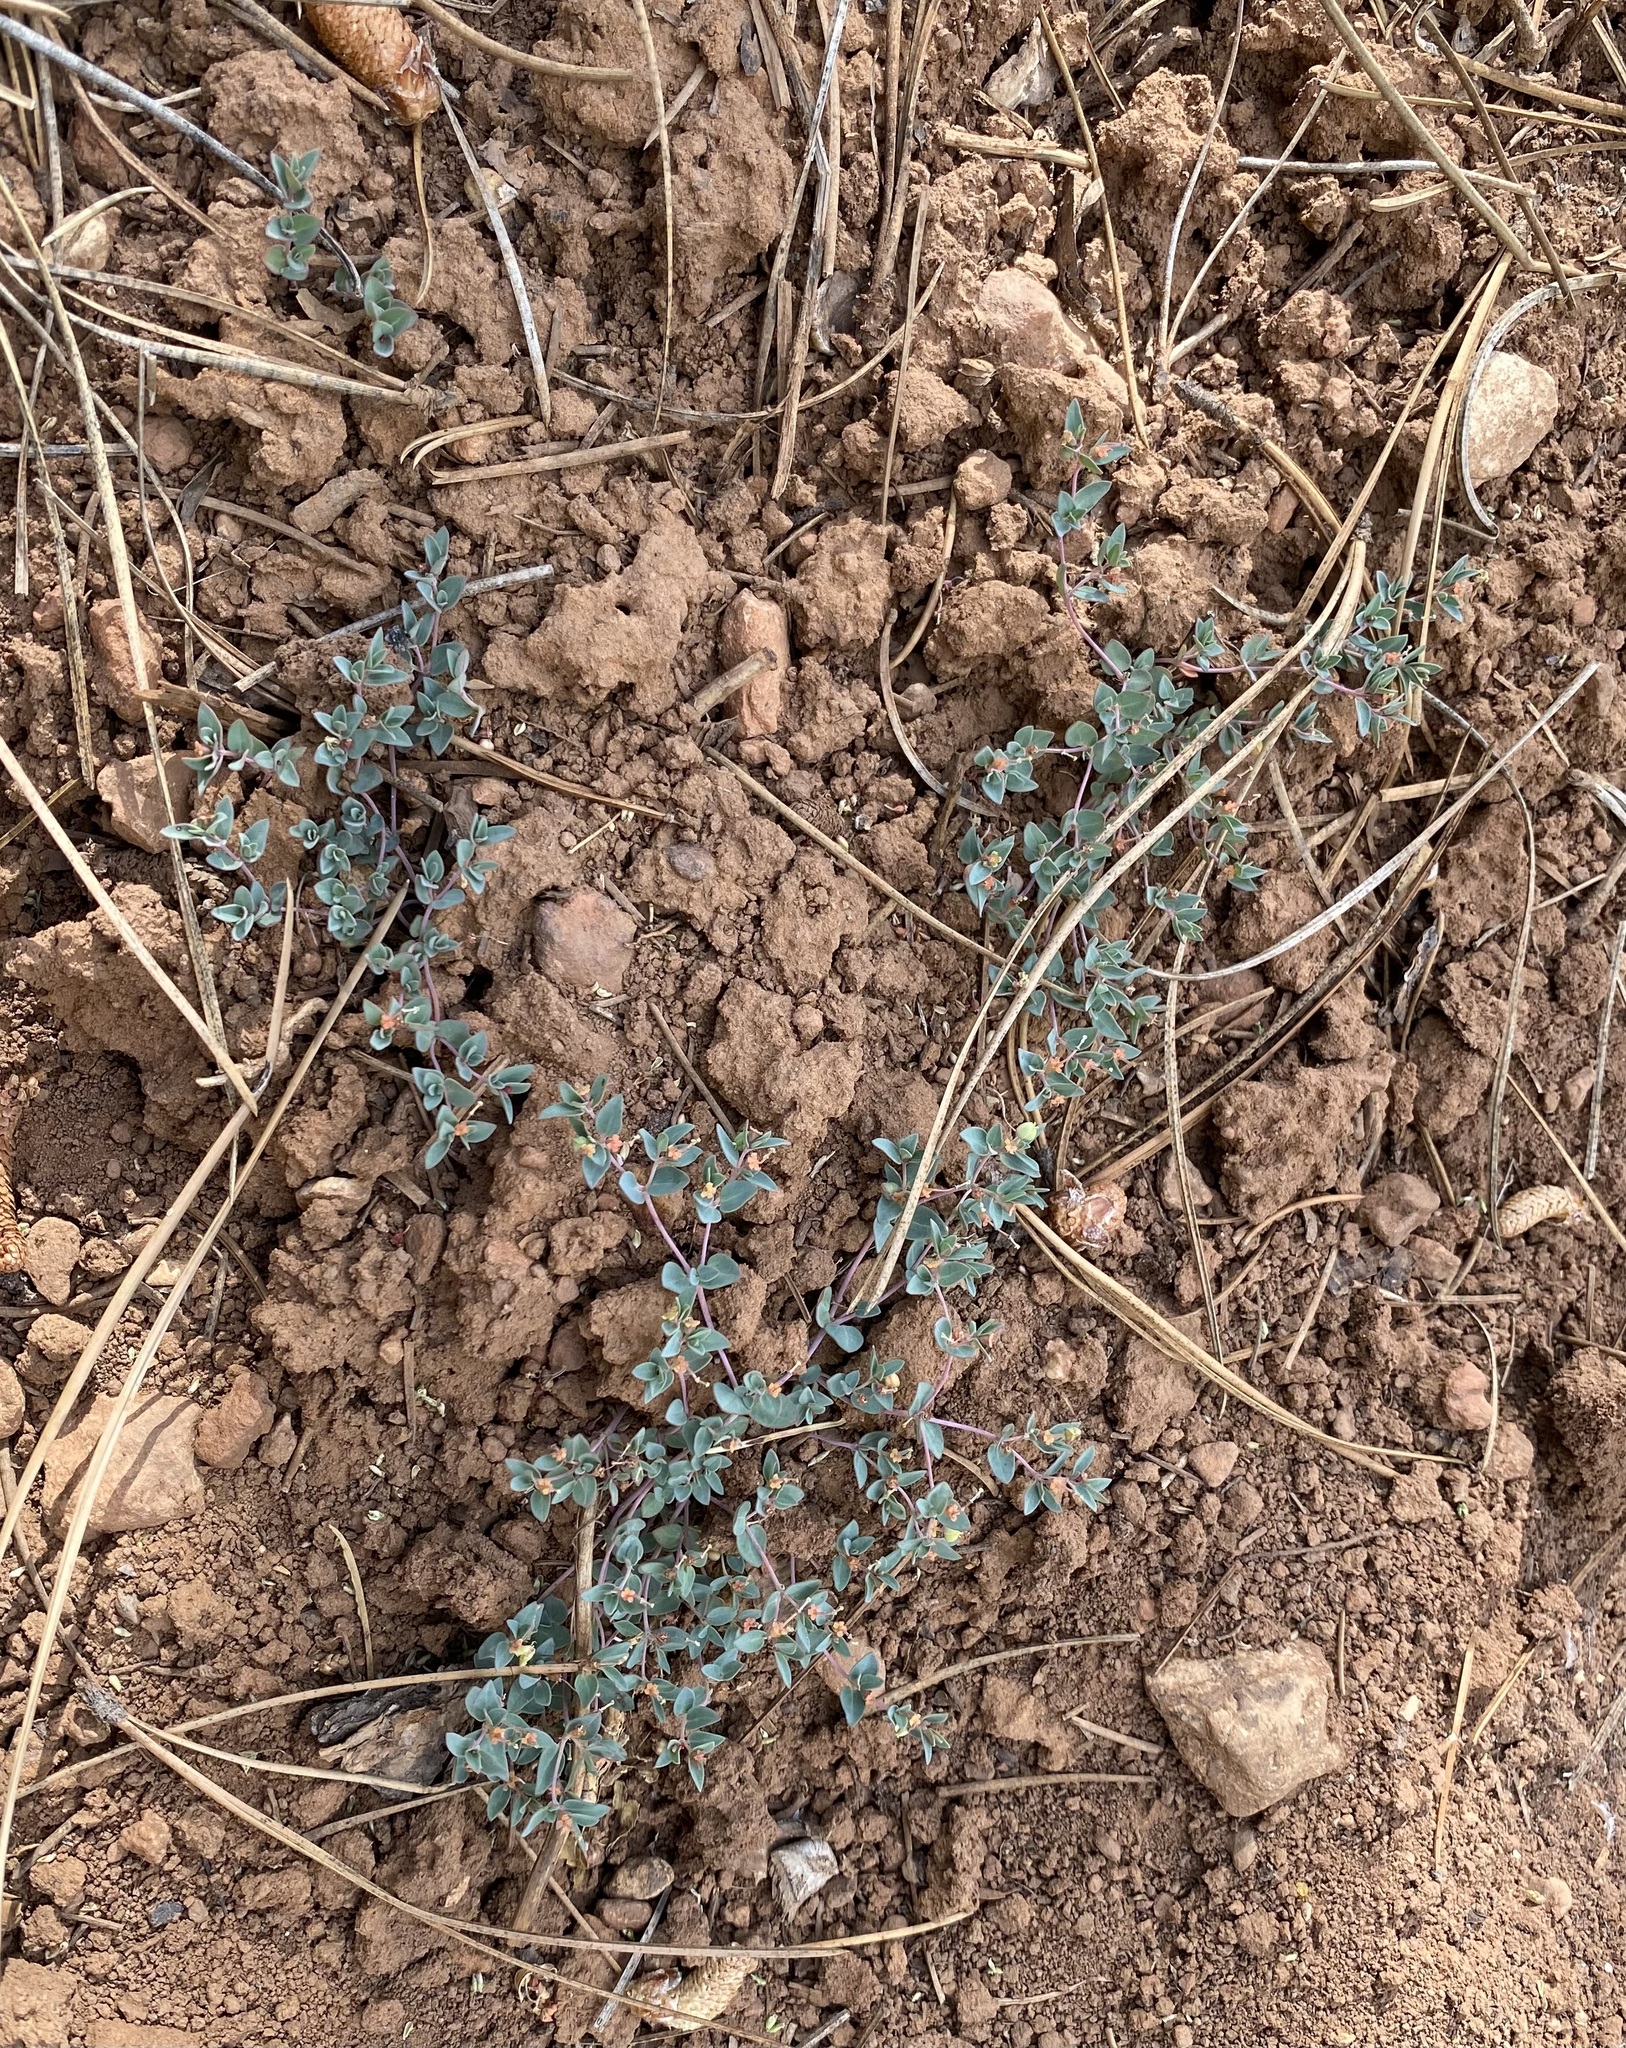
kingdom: Plantae
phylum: Tracheophyta
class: Magnoliopsida
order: Malpighiales
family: Euphorbiaceae
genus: Euphorbia
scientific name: Euphorbia fendleri
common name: Fendler's euphorbia
